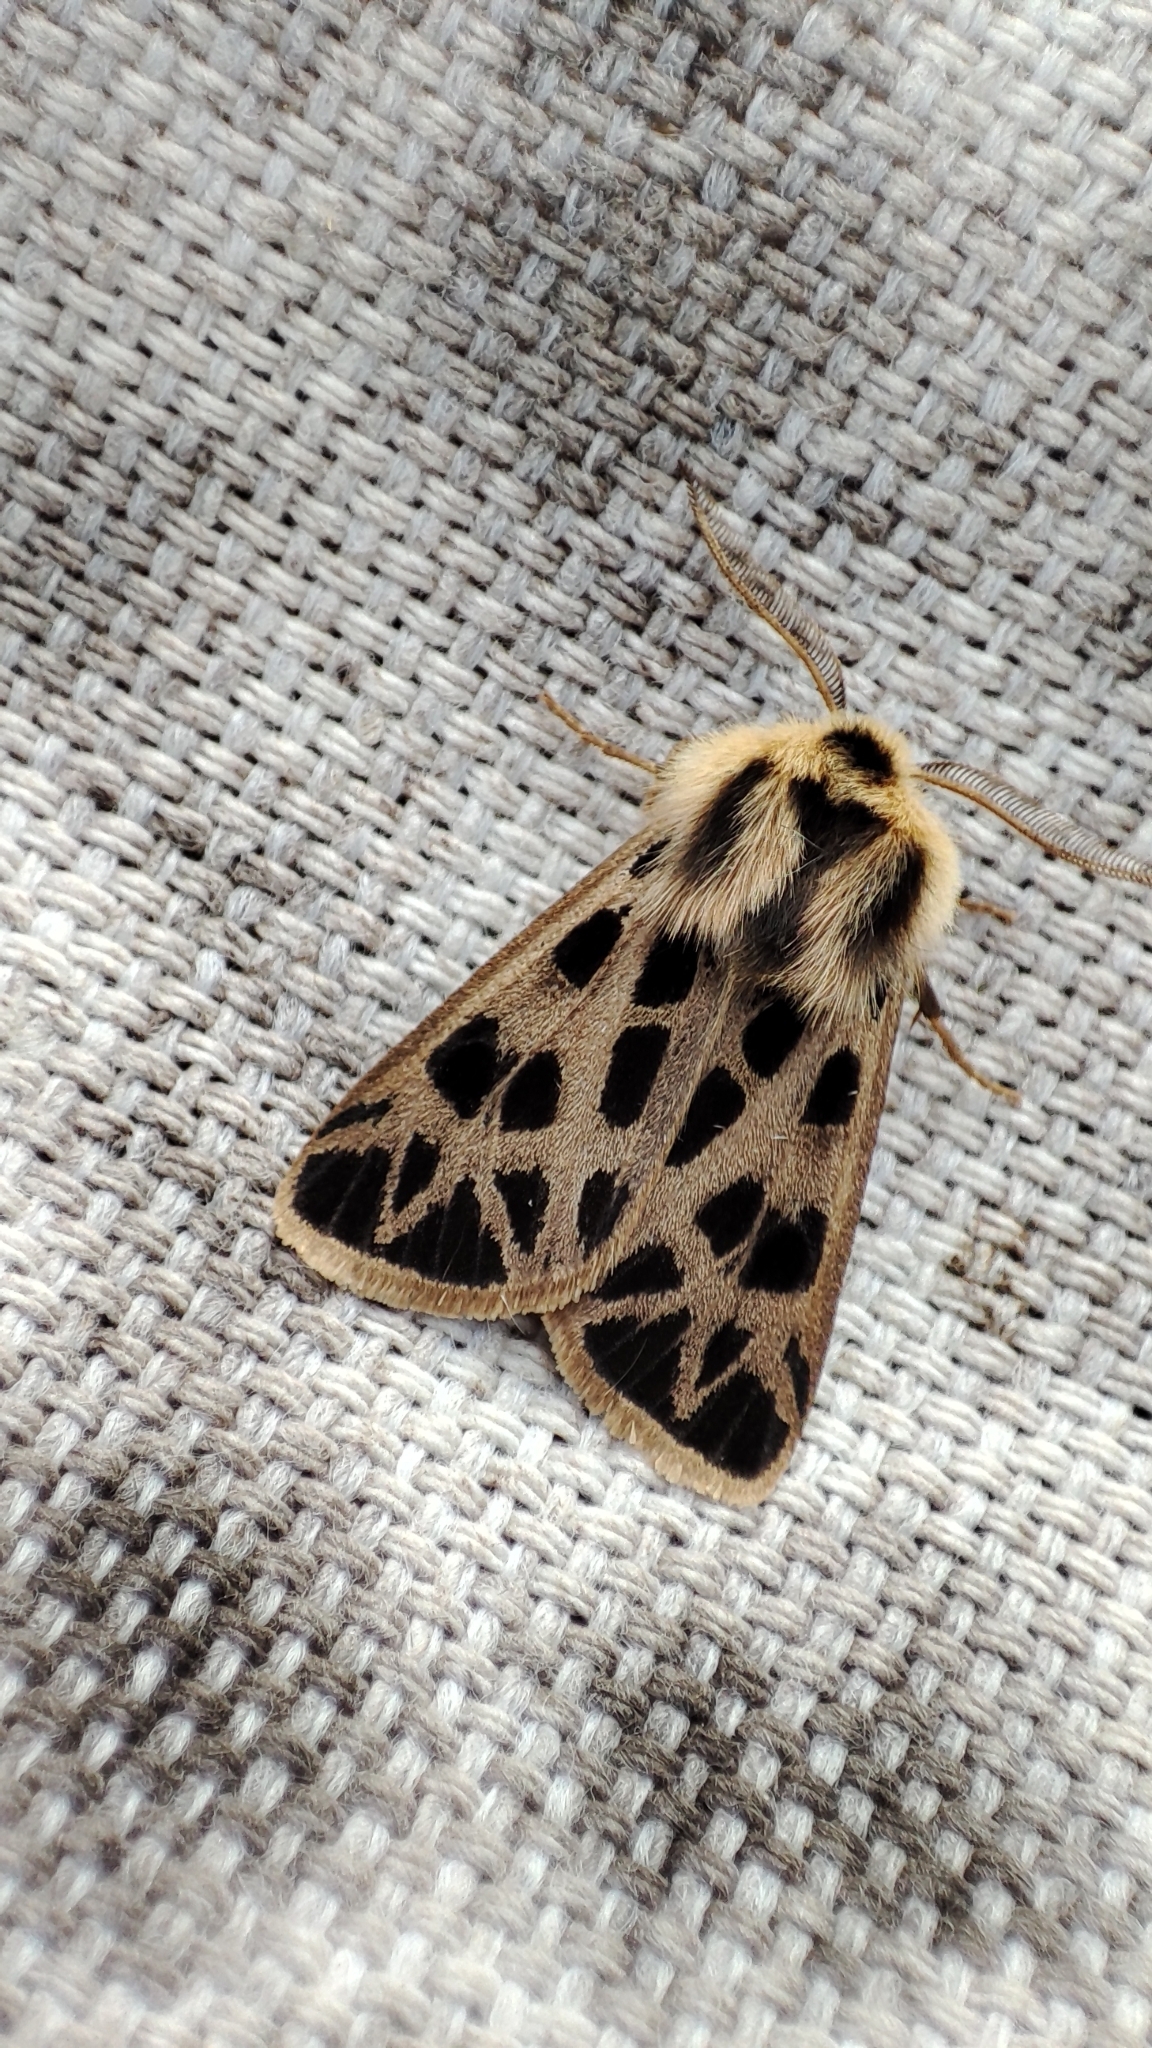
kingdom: Animalia
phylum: Arthropoda
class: Insecta
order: Lepidoptera
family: Erebidae
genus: Chelis
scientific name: Chelis caecilia
